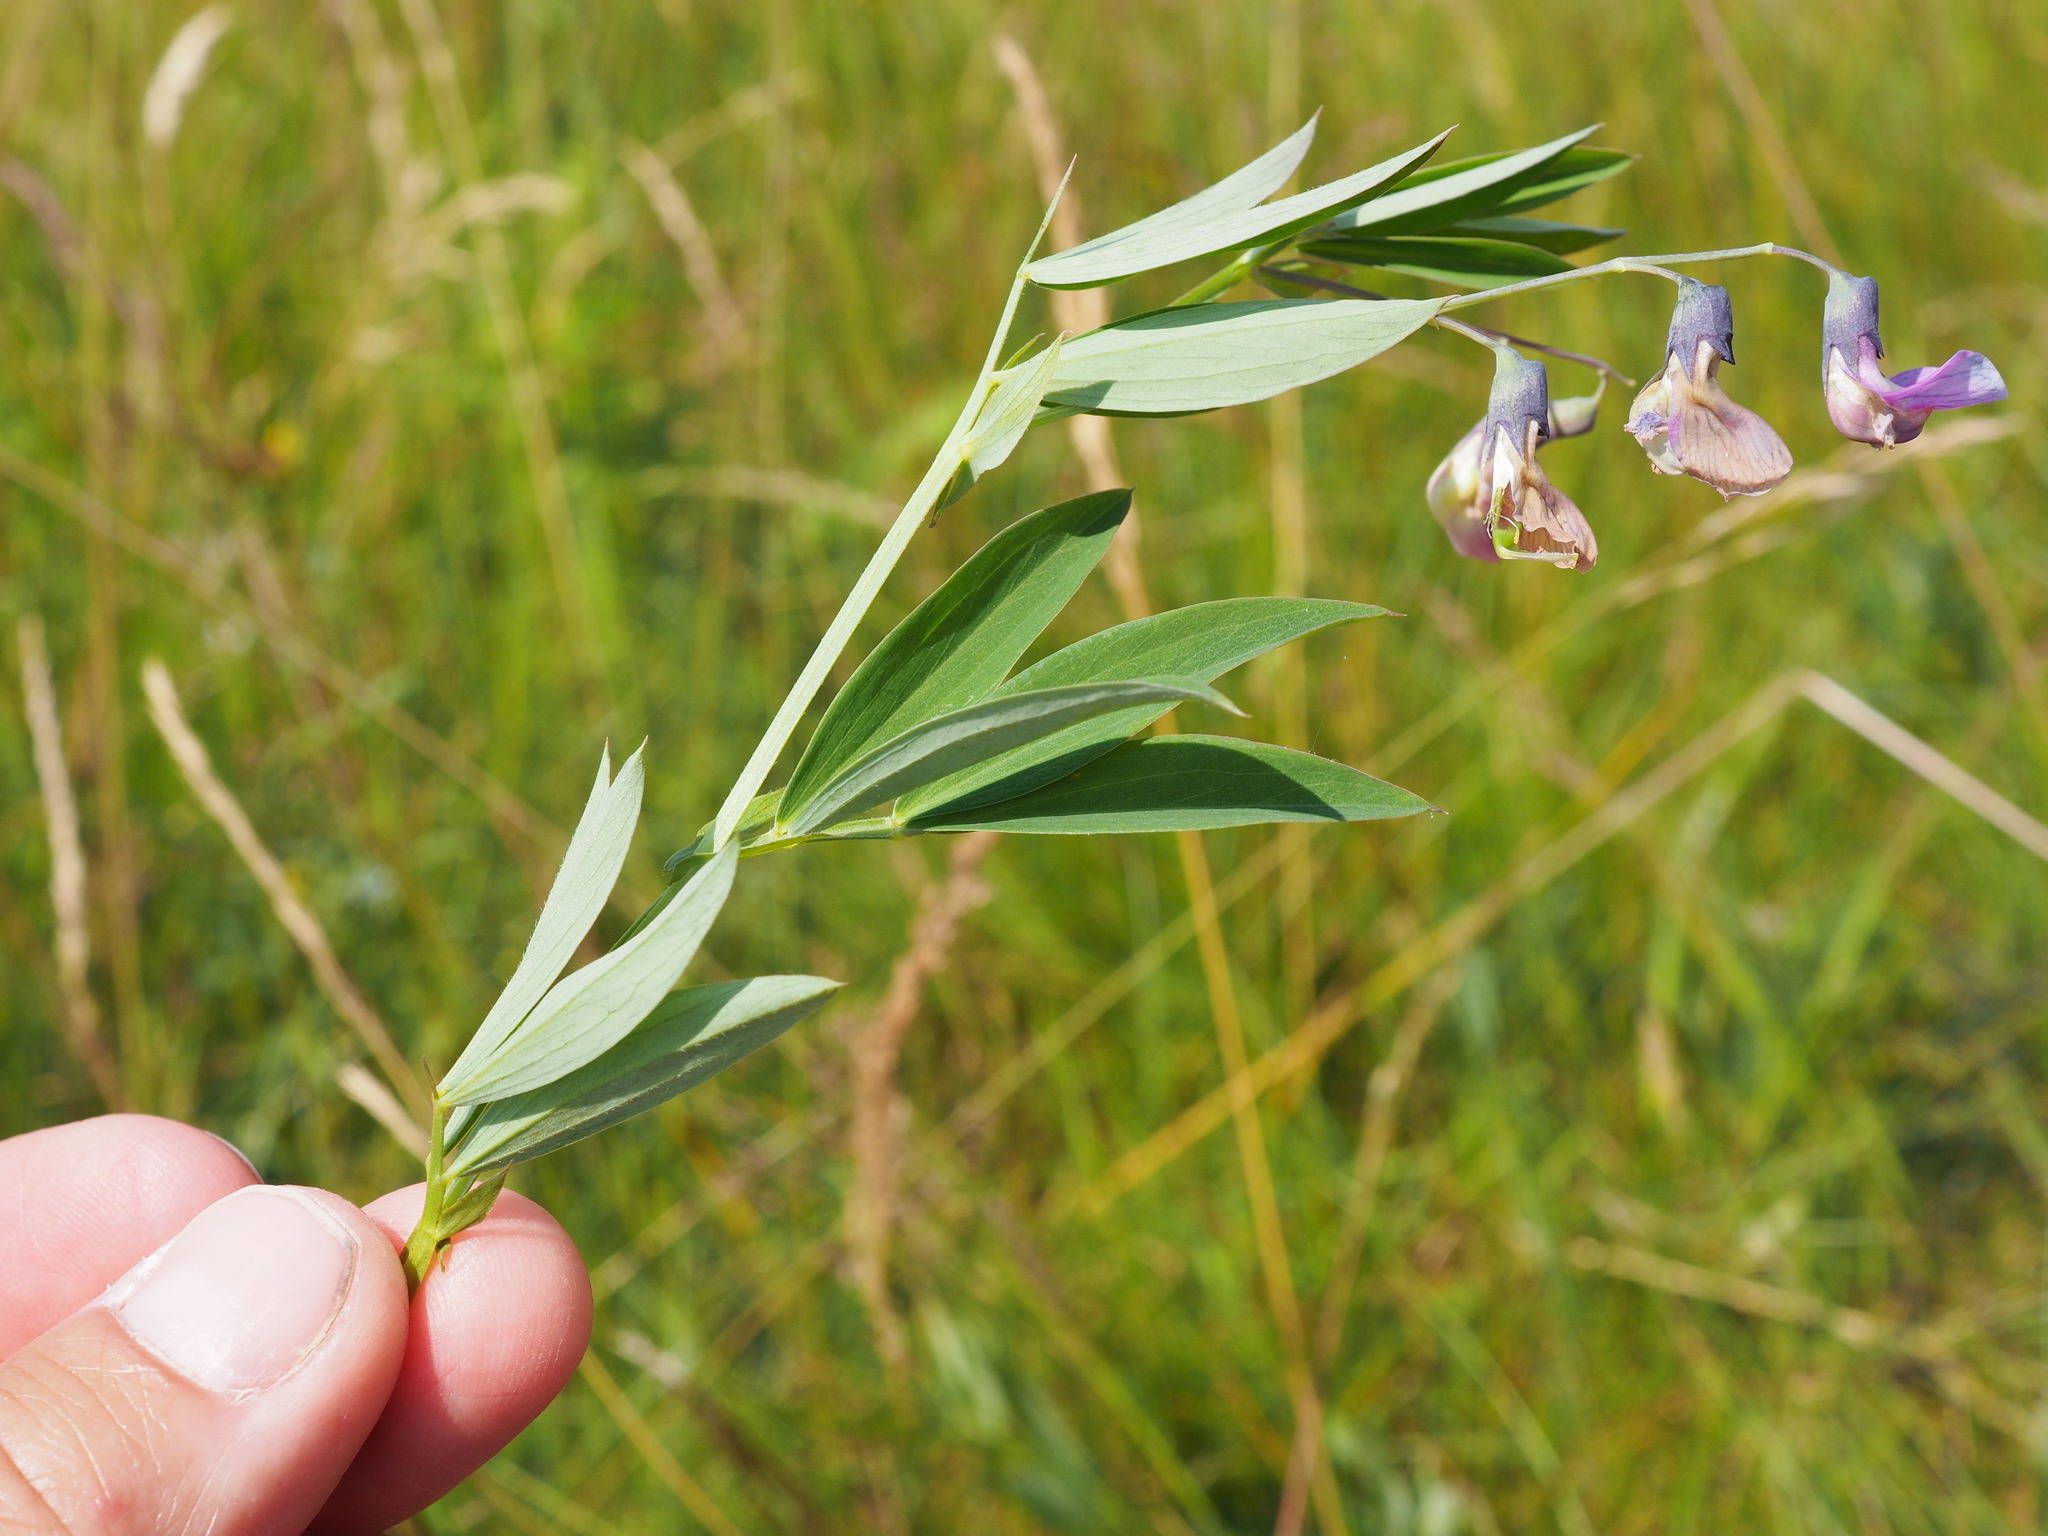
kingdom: Plantae
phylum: Tracheophyta
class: Magnoliopsida
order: Fabales
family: Fabaceae
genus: Lathyrus
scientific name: Lathyrus linifolius
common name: Bitter-vetch
